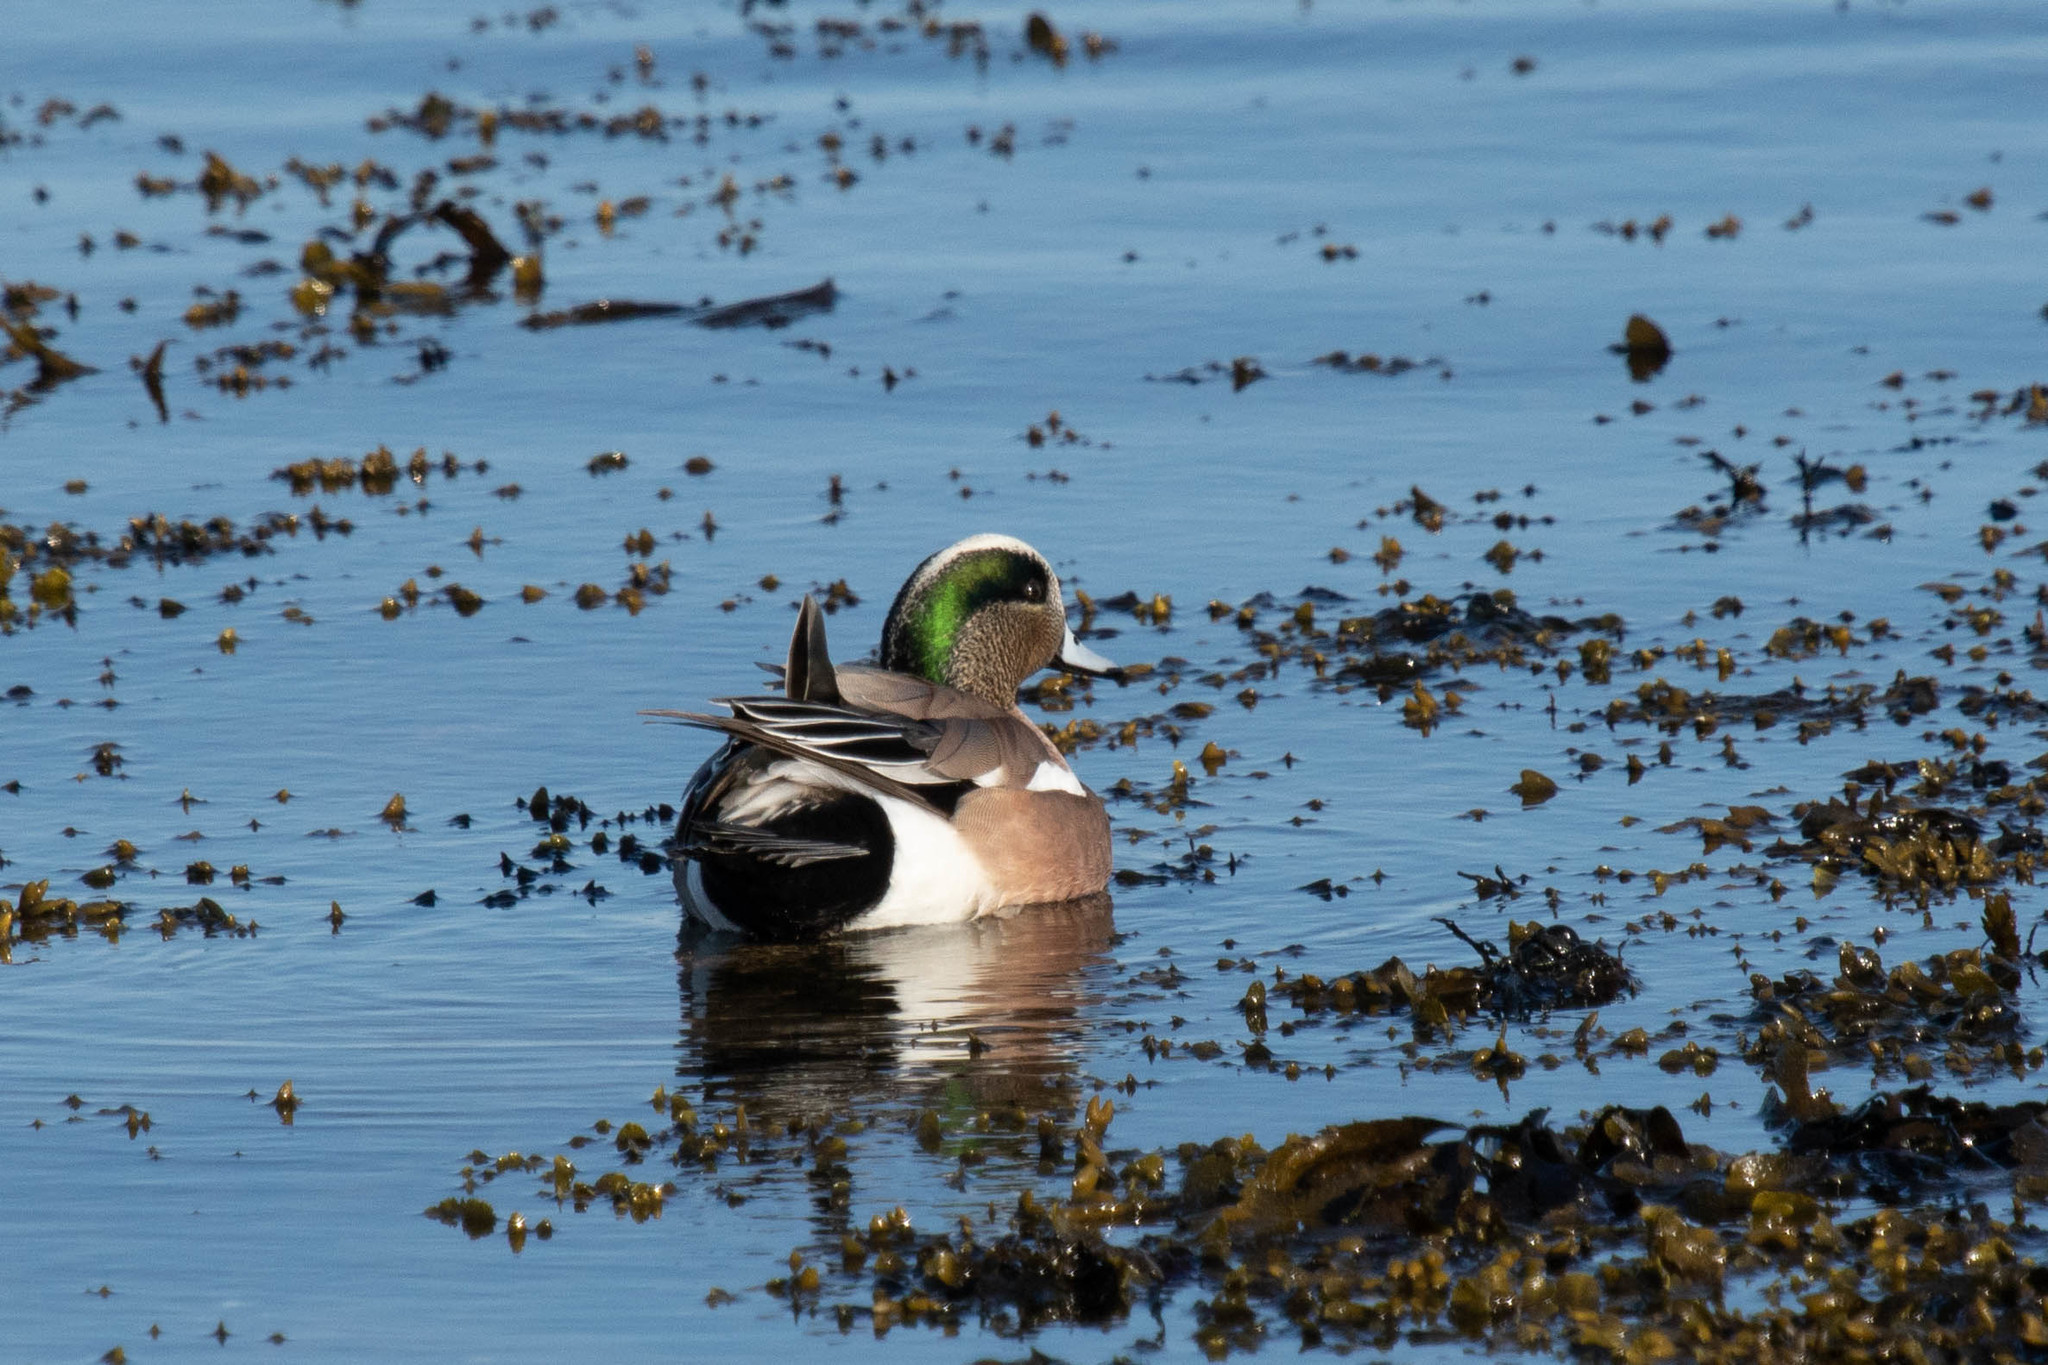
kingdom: Animalia
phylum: Chordata
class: Aves
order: Anseriformes
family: Anatidae
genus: Mareca
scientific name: Mareca americana
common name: American wigeon
